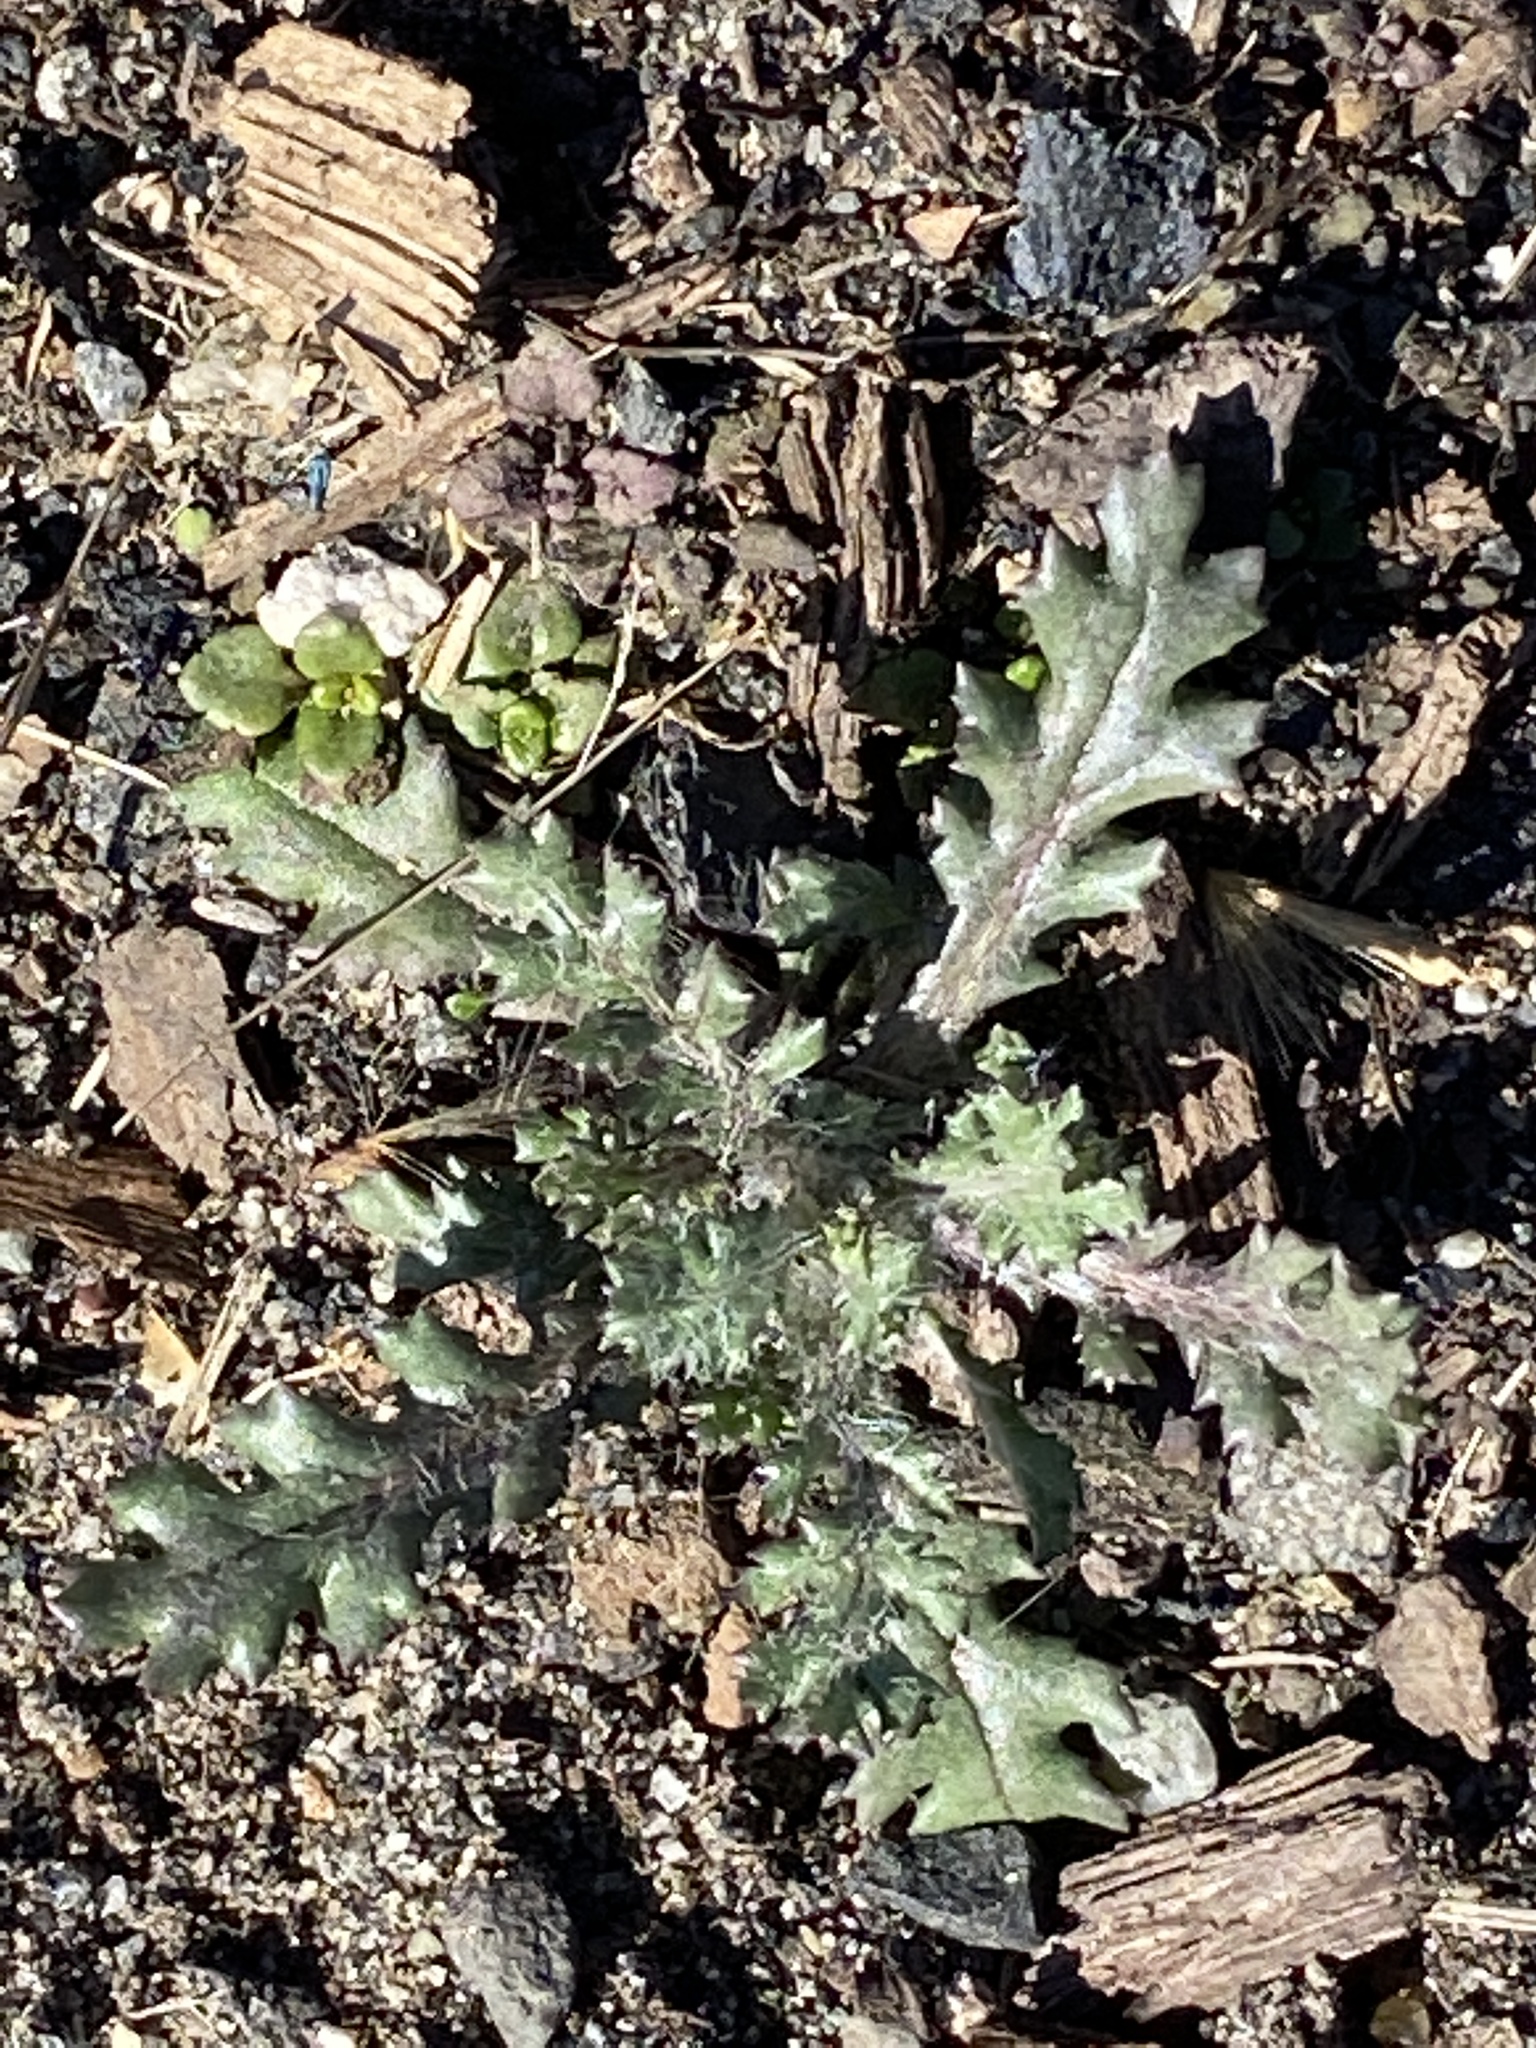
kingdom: Plantae
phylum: Tracheophyta
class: Magnoliopsida
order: Asterales
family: Asteraceae
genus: Senecio
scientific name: Senecio vulgaris
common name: Old-man-in-the-spring
